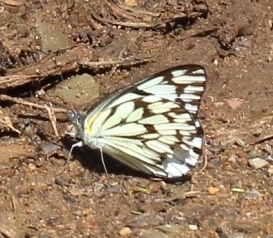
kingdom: Animalia
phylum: Arthropoda
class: Insecta
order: Lepidoptera
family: Pieridae
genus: Belenois
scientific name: Belenois gidica
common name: Pointed caper white
